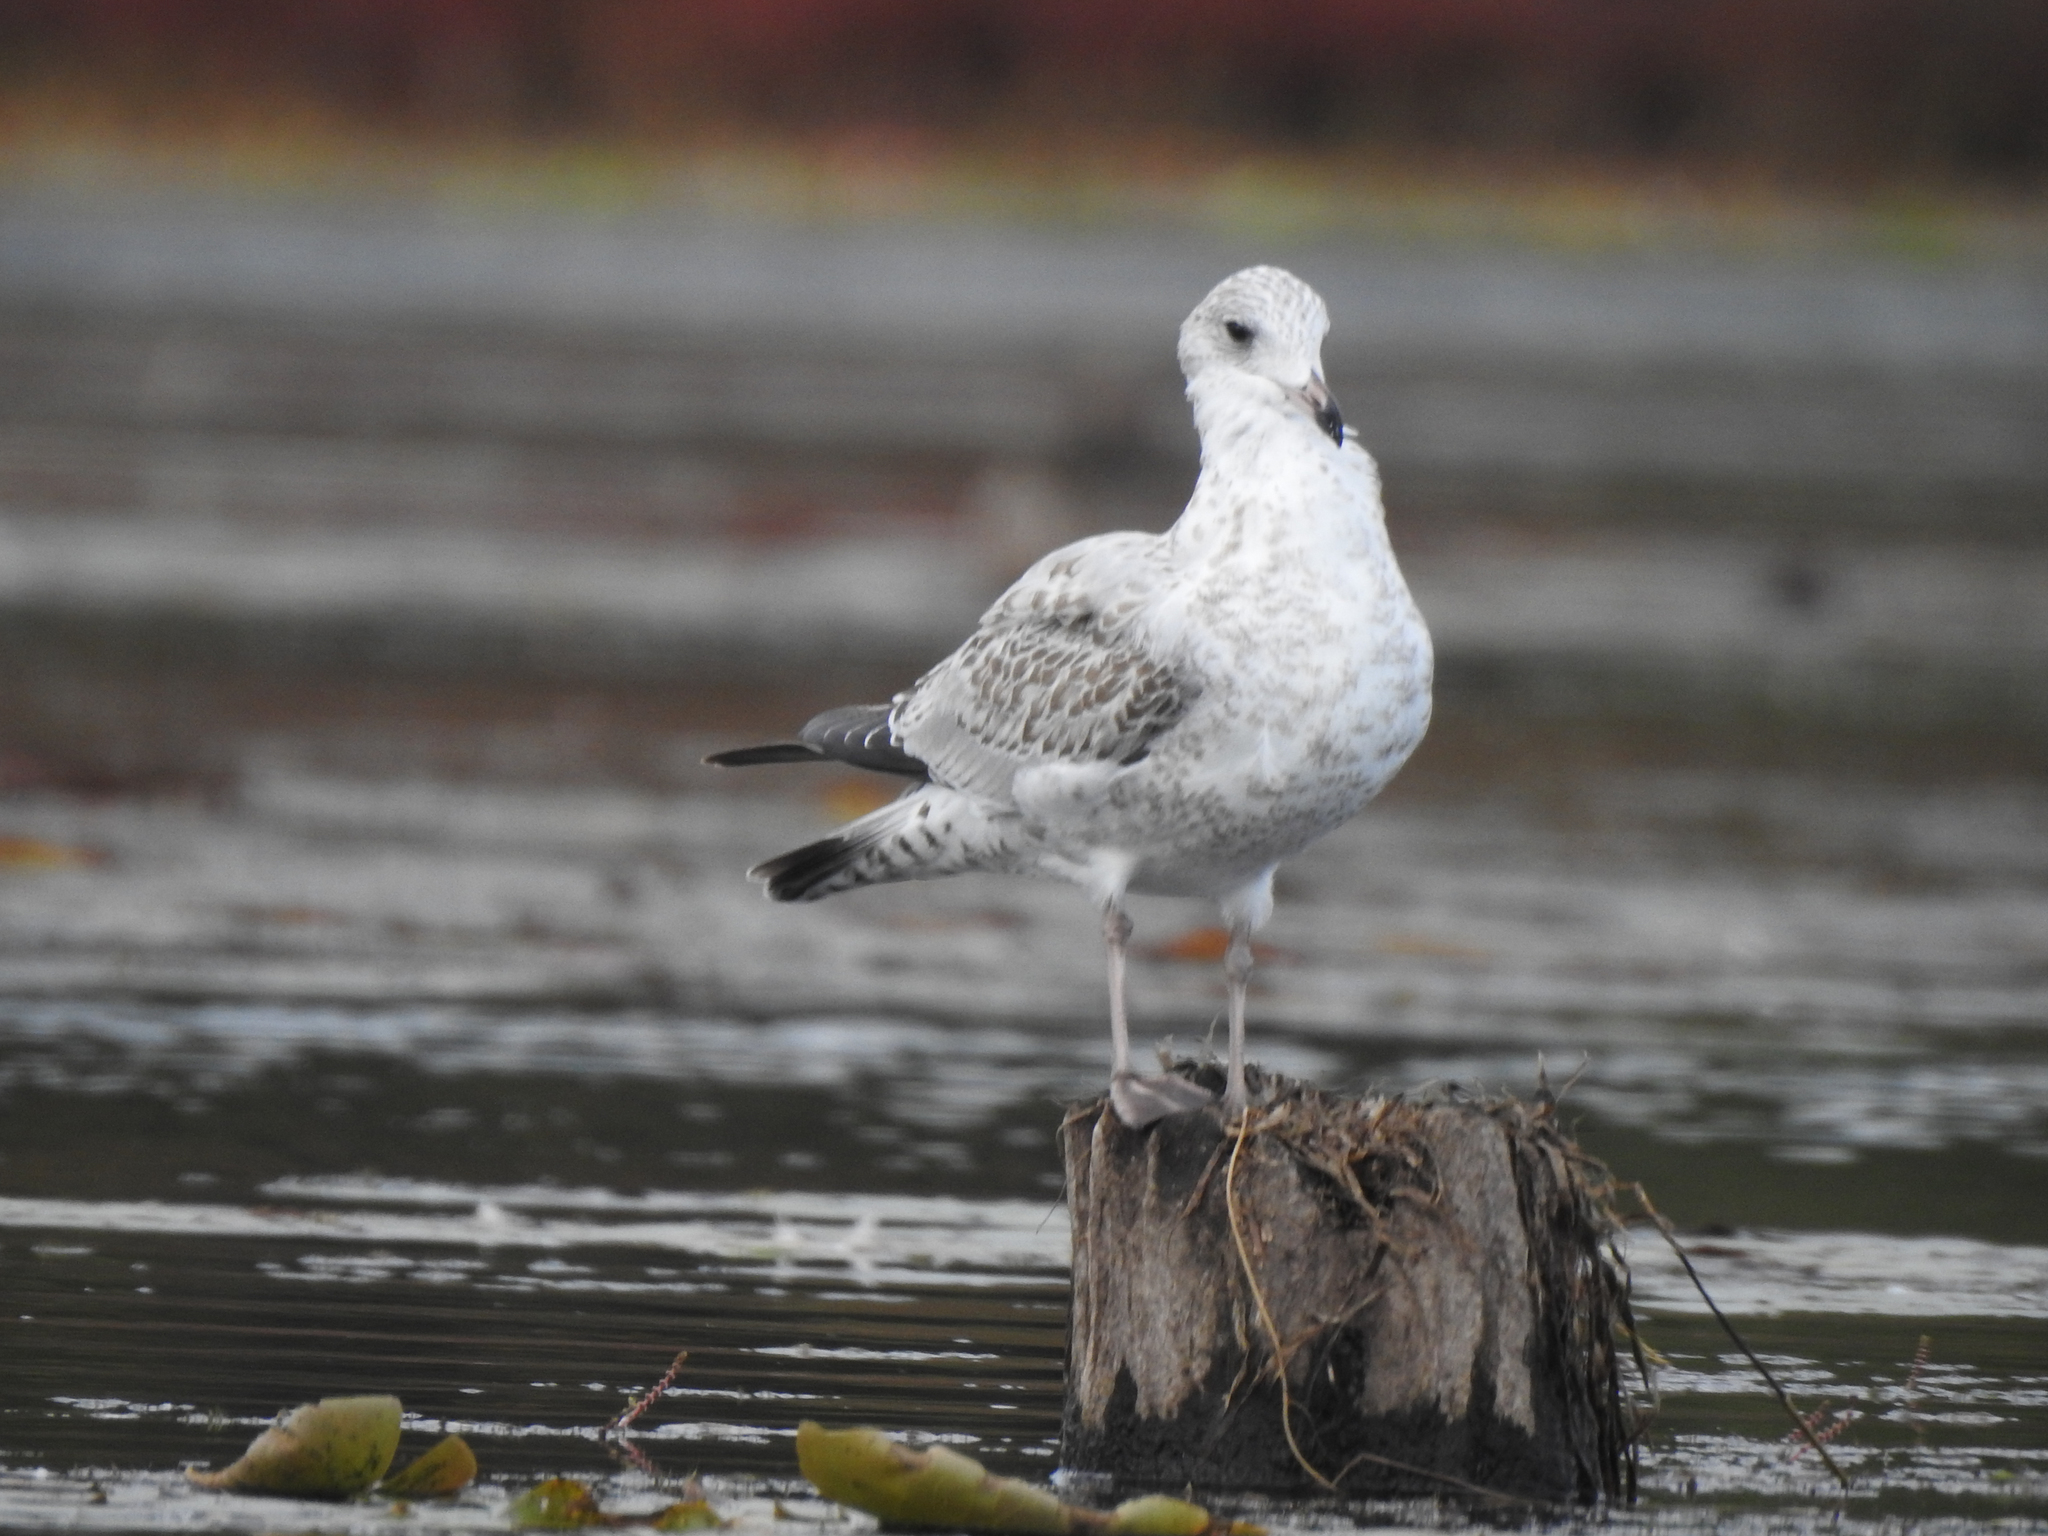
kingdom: Animalia
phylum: Chordata
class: Aves
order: Charadriiformes
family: Laridae
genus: Larus
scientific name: Larus argentatus
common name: Herring gull
